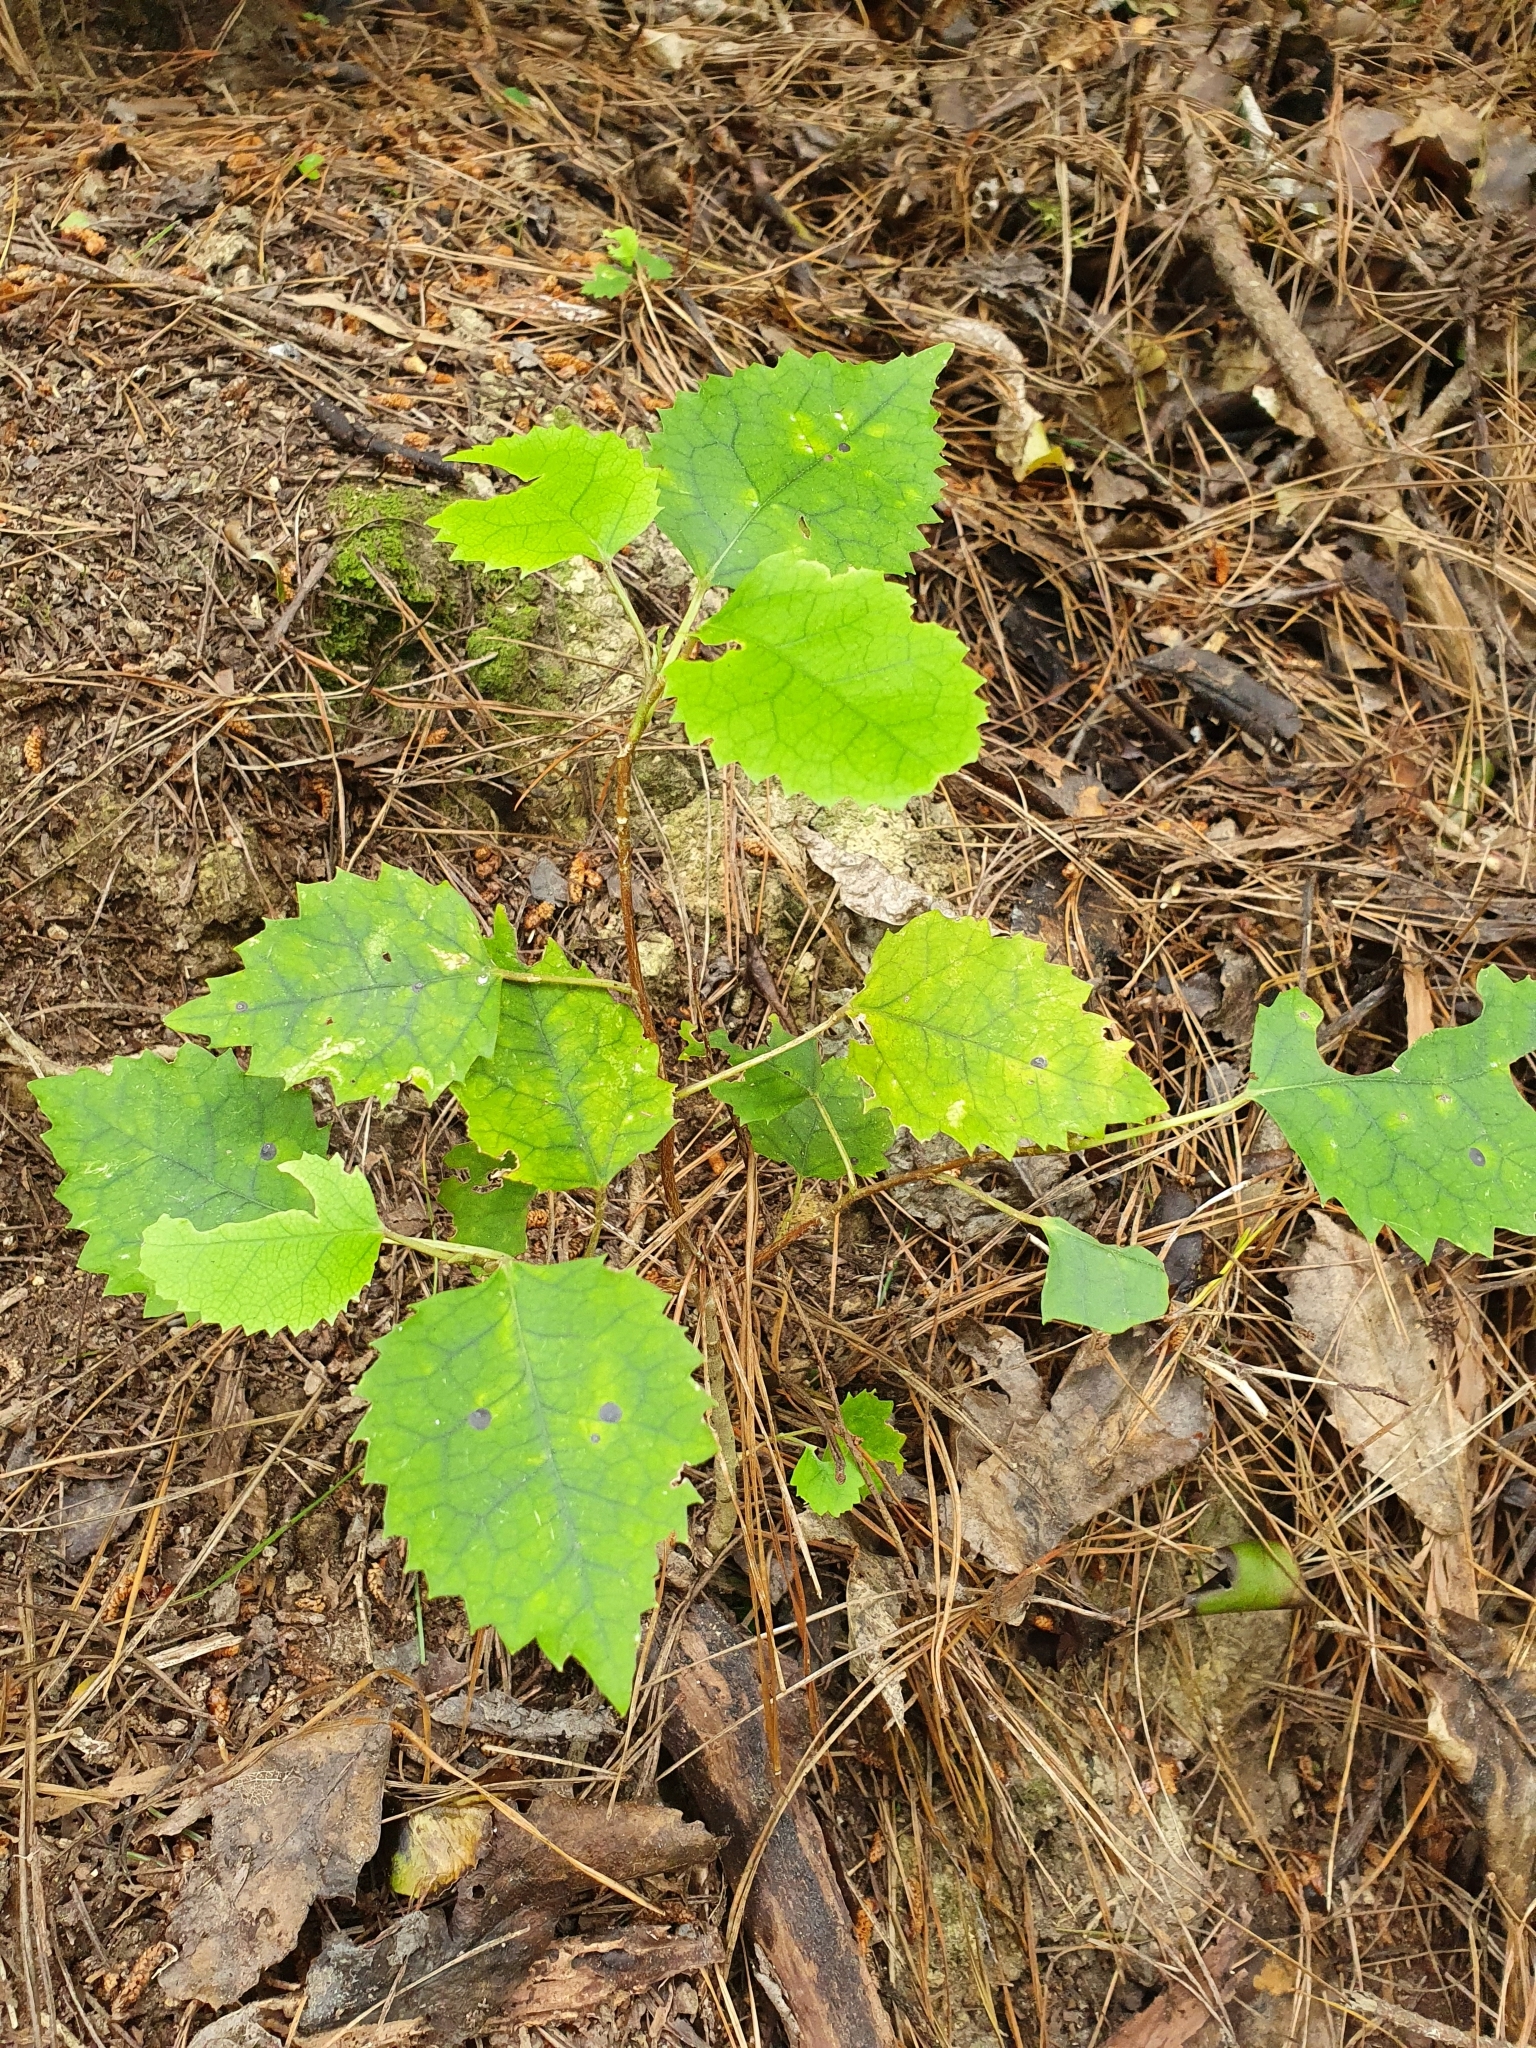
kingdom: Plantae
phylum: Tracheophyta
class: Magnoliopsida
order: Malvales
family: Malvaceae
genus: Hoheria
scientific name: Hoheria populnea
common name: Lacebark
